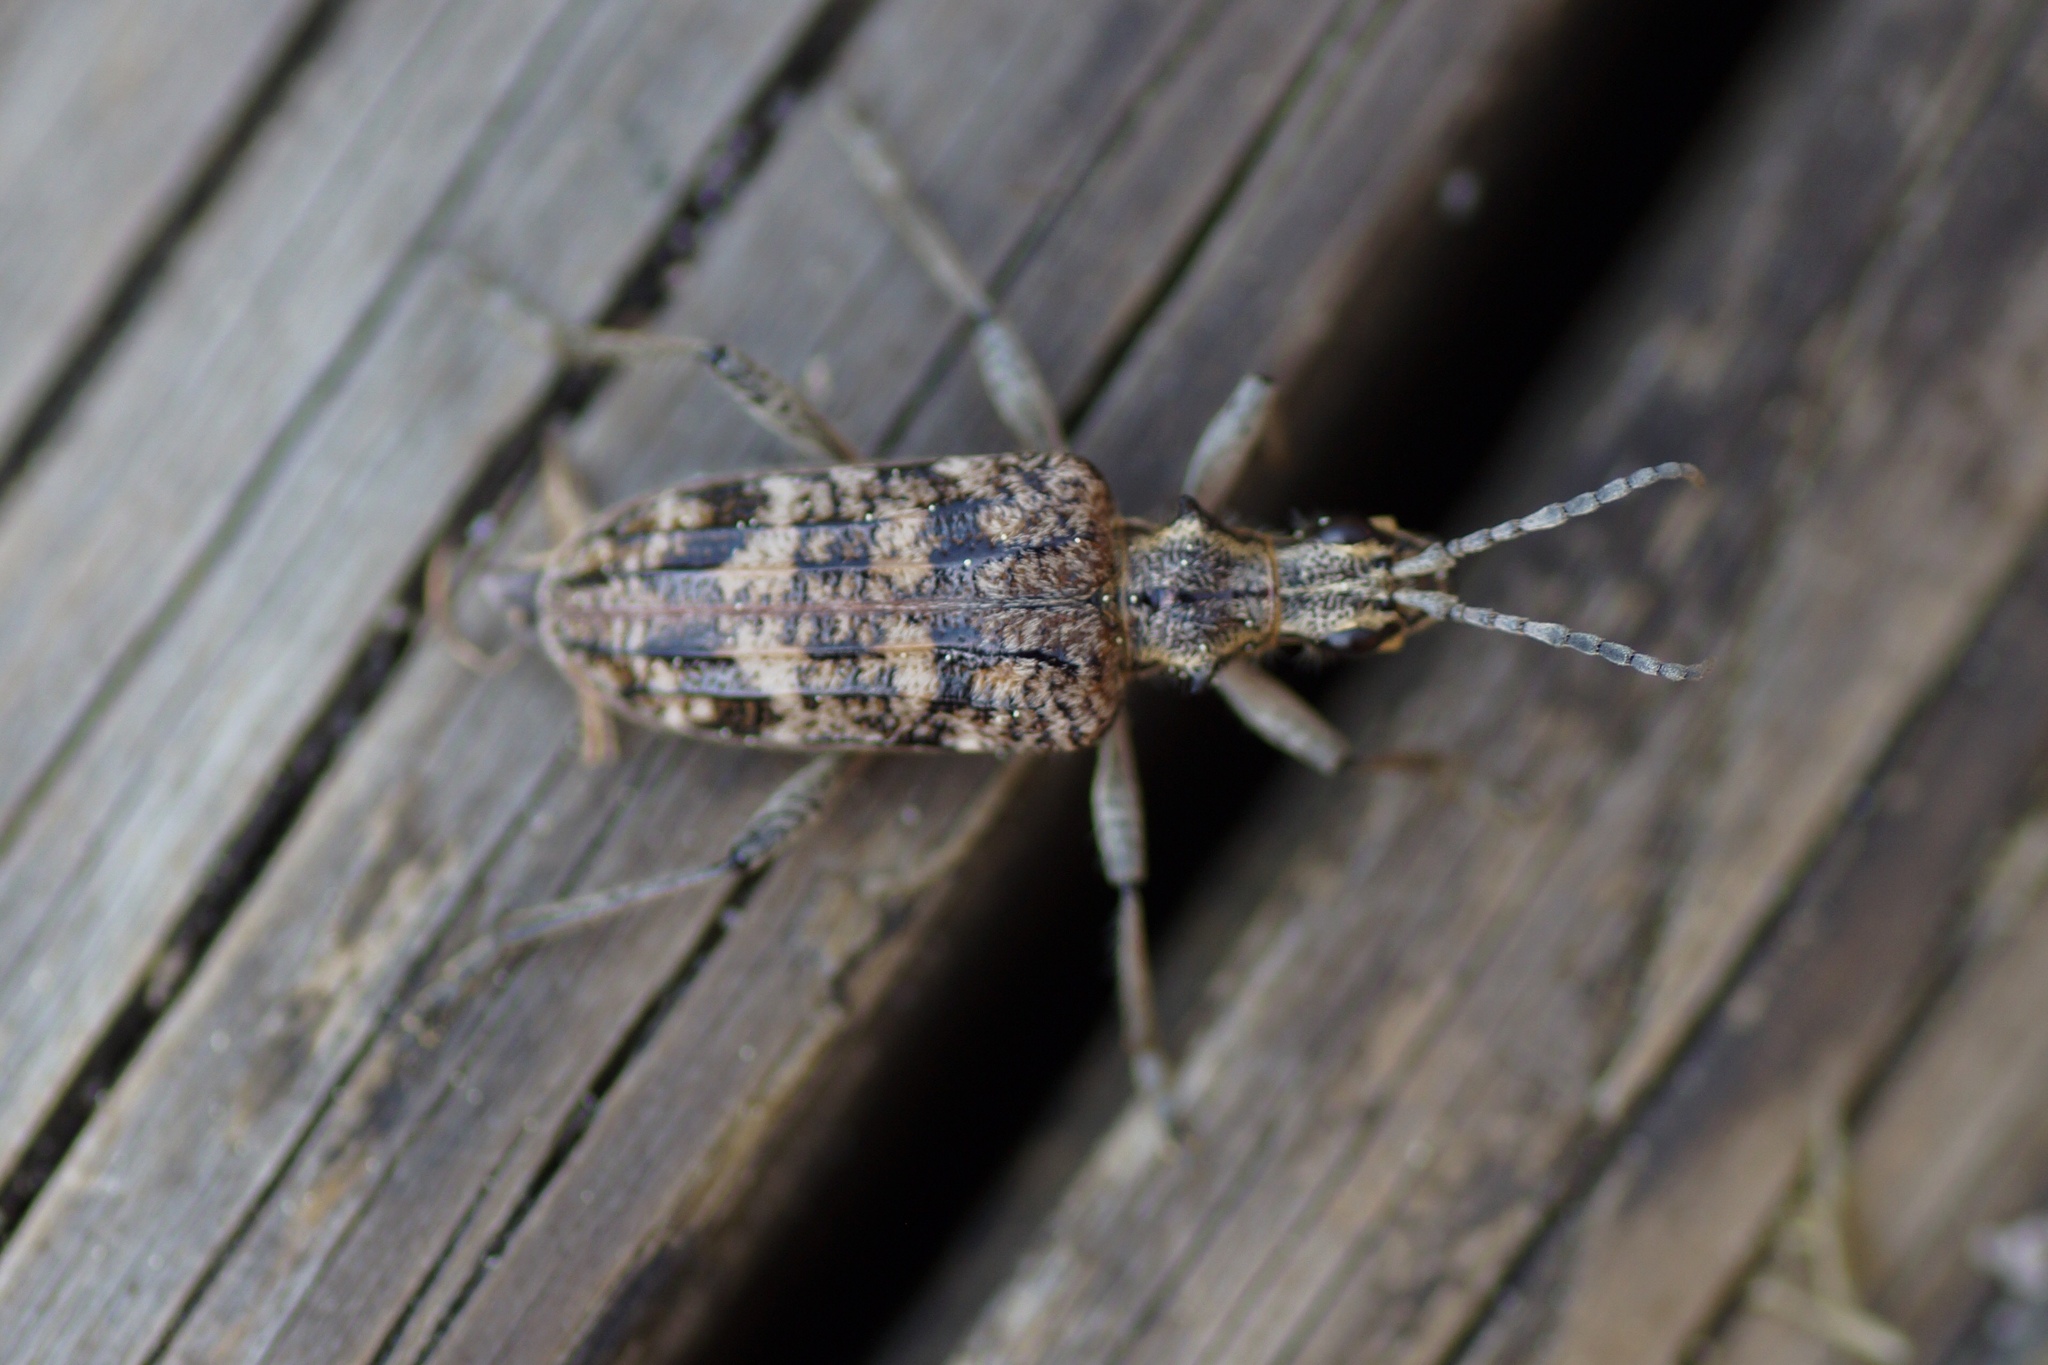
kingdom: Animalia
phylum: Arthropoda
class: Insecta
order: Coleoptera
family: Cerambycidae
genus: Rhagium
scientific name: Rhagium inquisitor
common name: Ribbed pine borer
